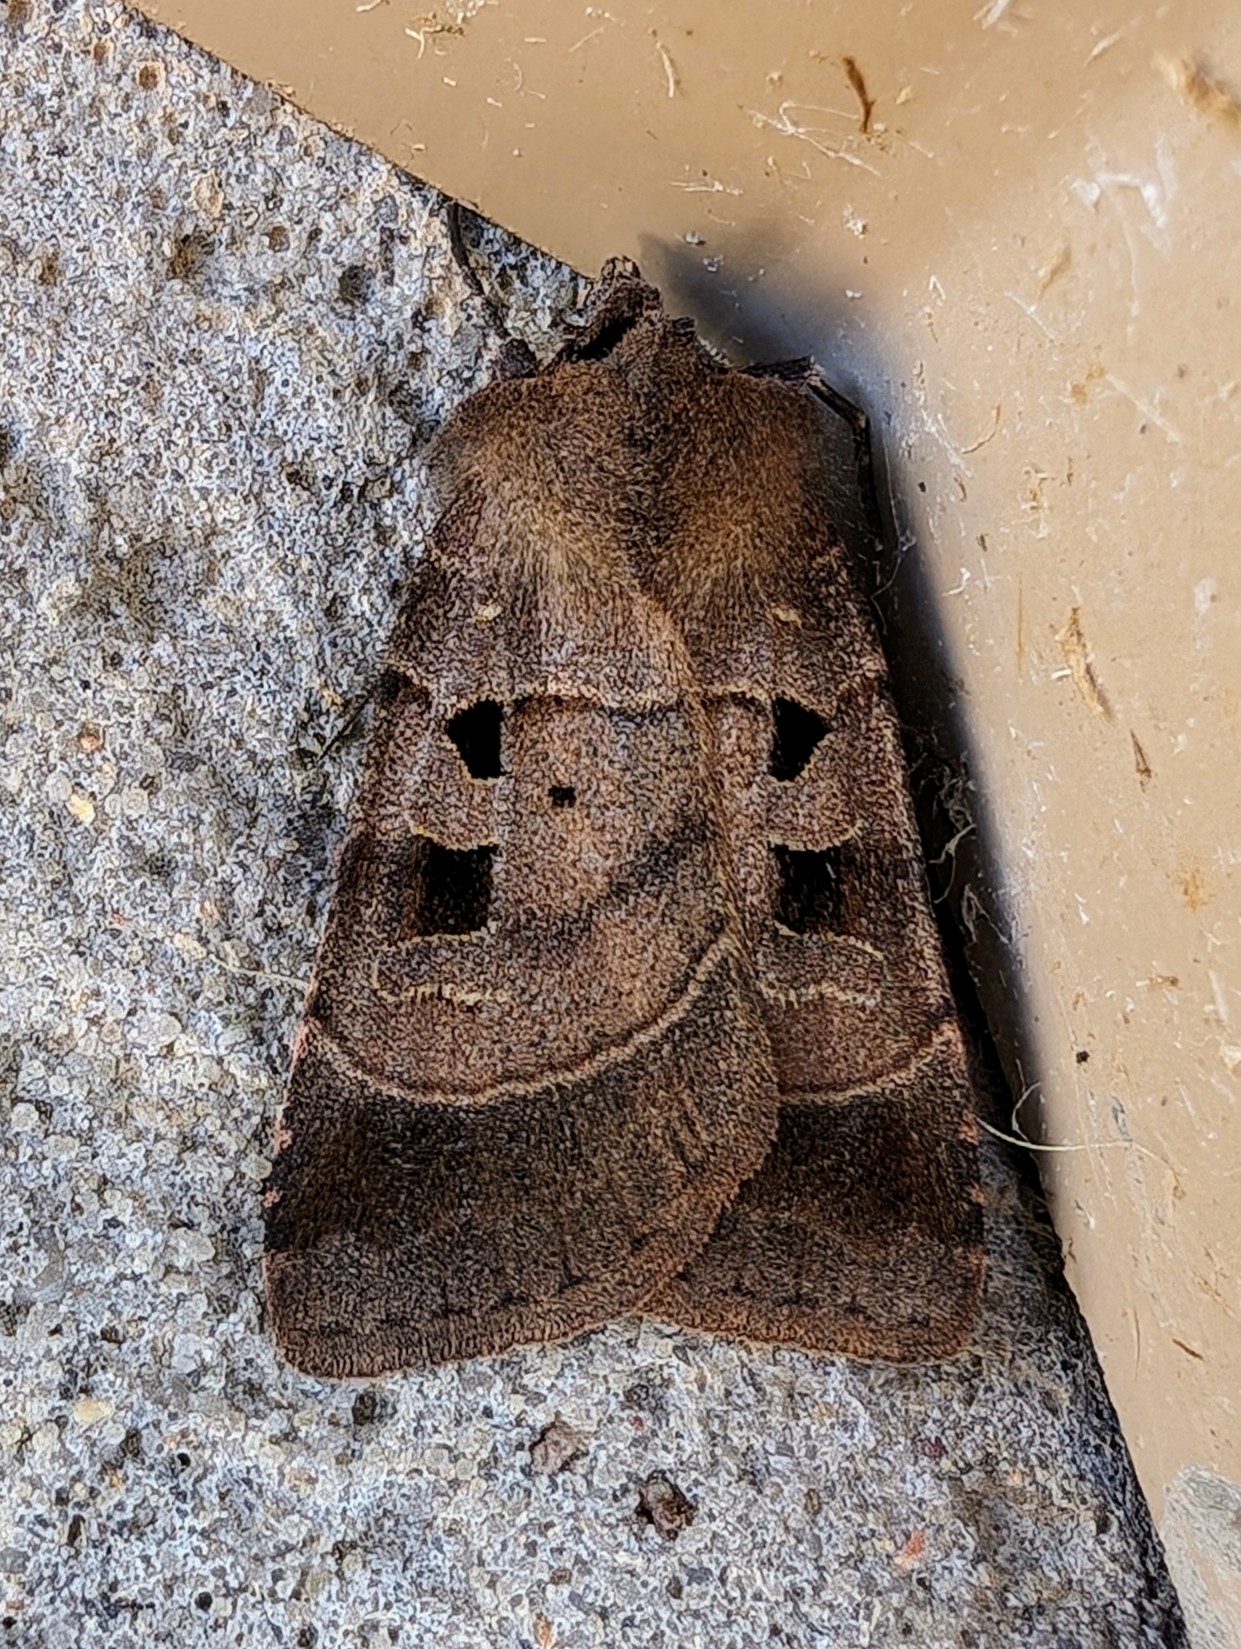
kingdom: Animalia
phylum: Arthropoda
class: Insecta
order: Lepidoptera
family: Noctuidae
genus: Agnorisma
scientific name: Agnorisma badinodis
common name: Pale-banded dart
